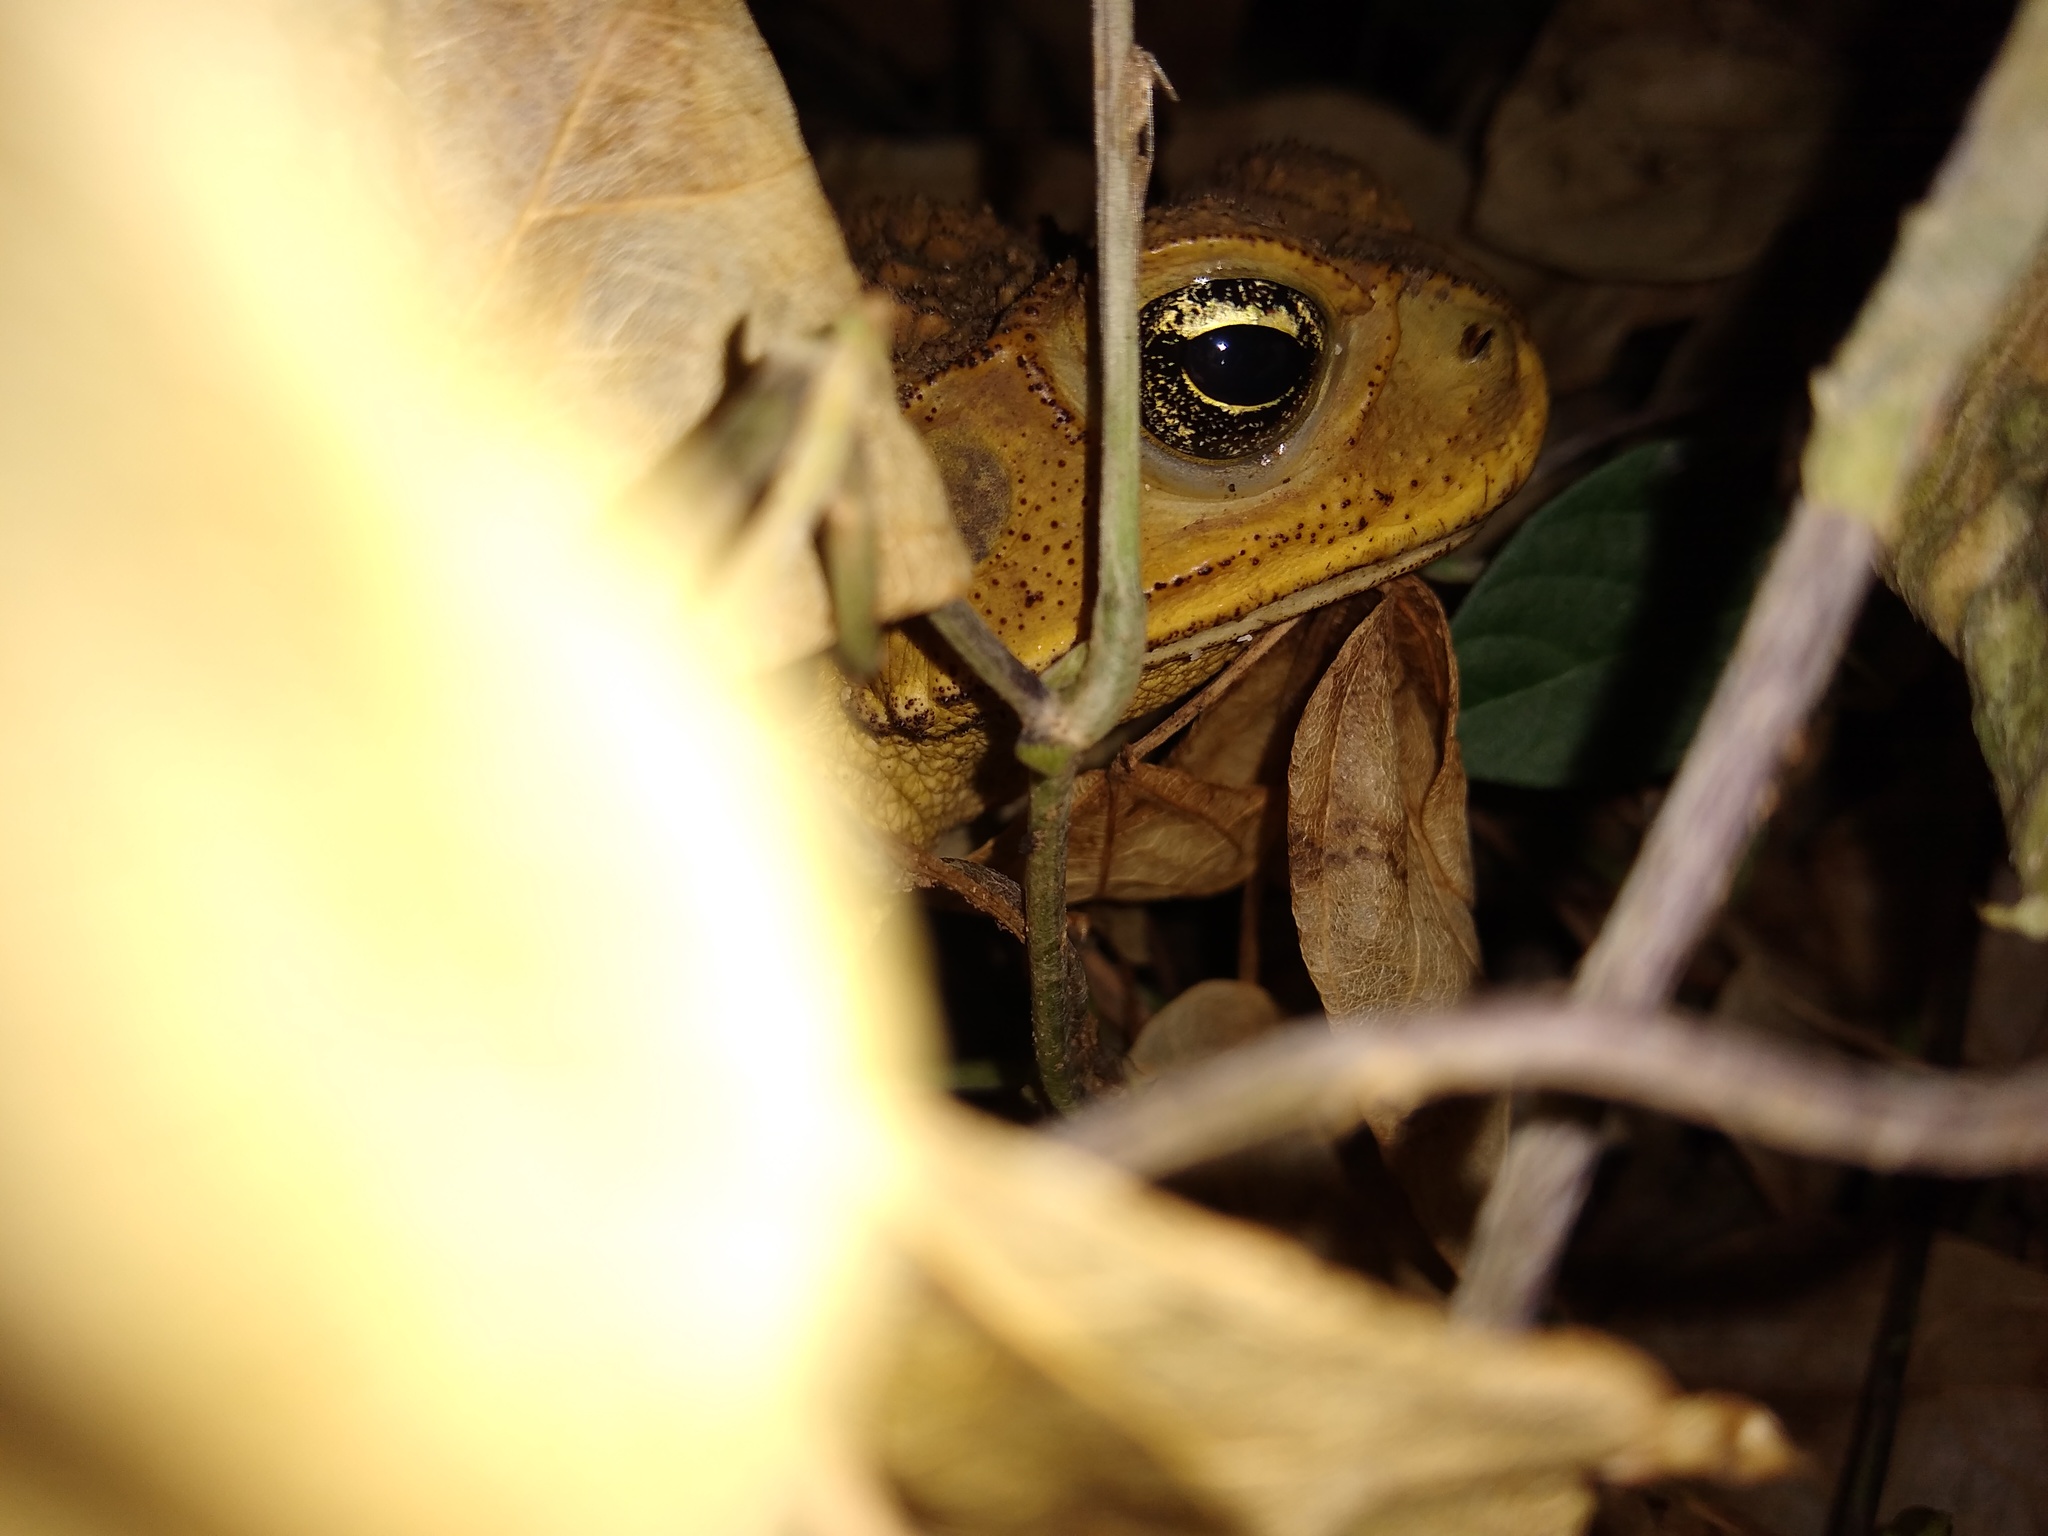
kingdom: Animalia
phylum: Chordata
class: Amphibia
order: Anura
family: Bufonidae
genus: Rhinella
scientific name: Rhinella horribilis
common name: Mesoamerican cane toad
